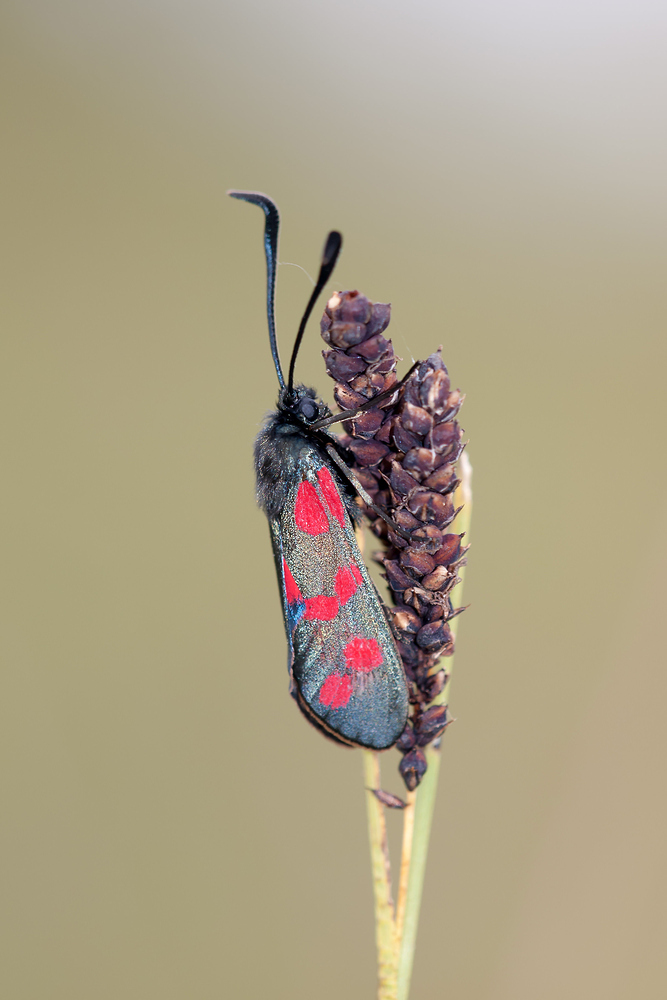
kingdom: Animalia
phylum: Arthropoda
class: Insecta
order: Lepidoptera
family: Zygaenidae
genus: Zygaena
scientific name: Zygaena filipendulae
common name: Six-spot burnet
